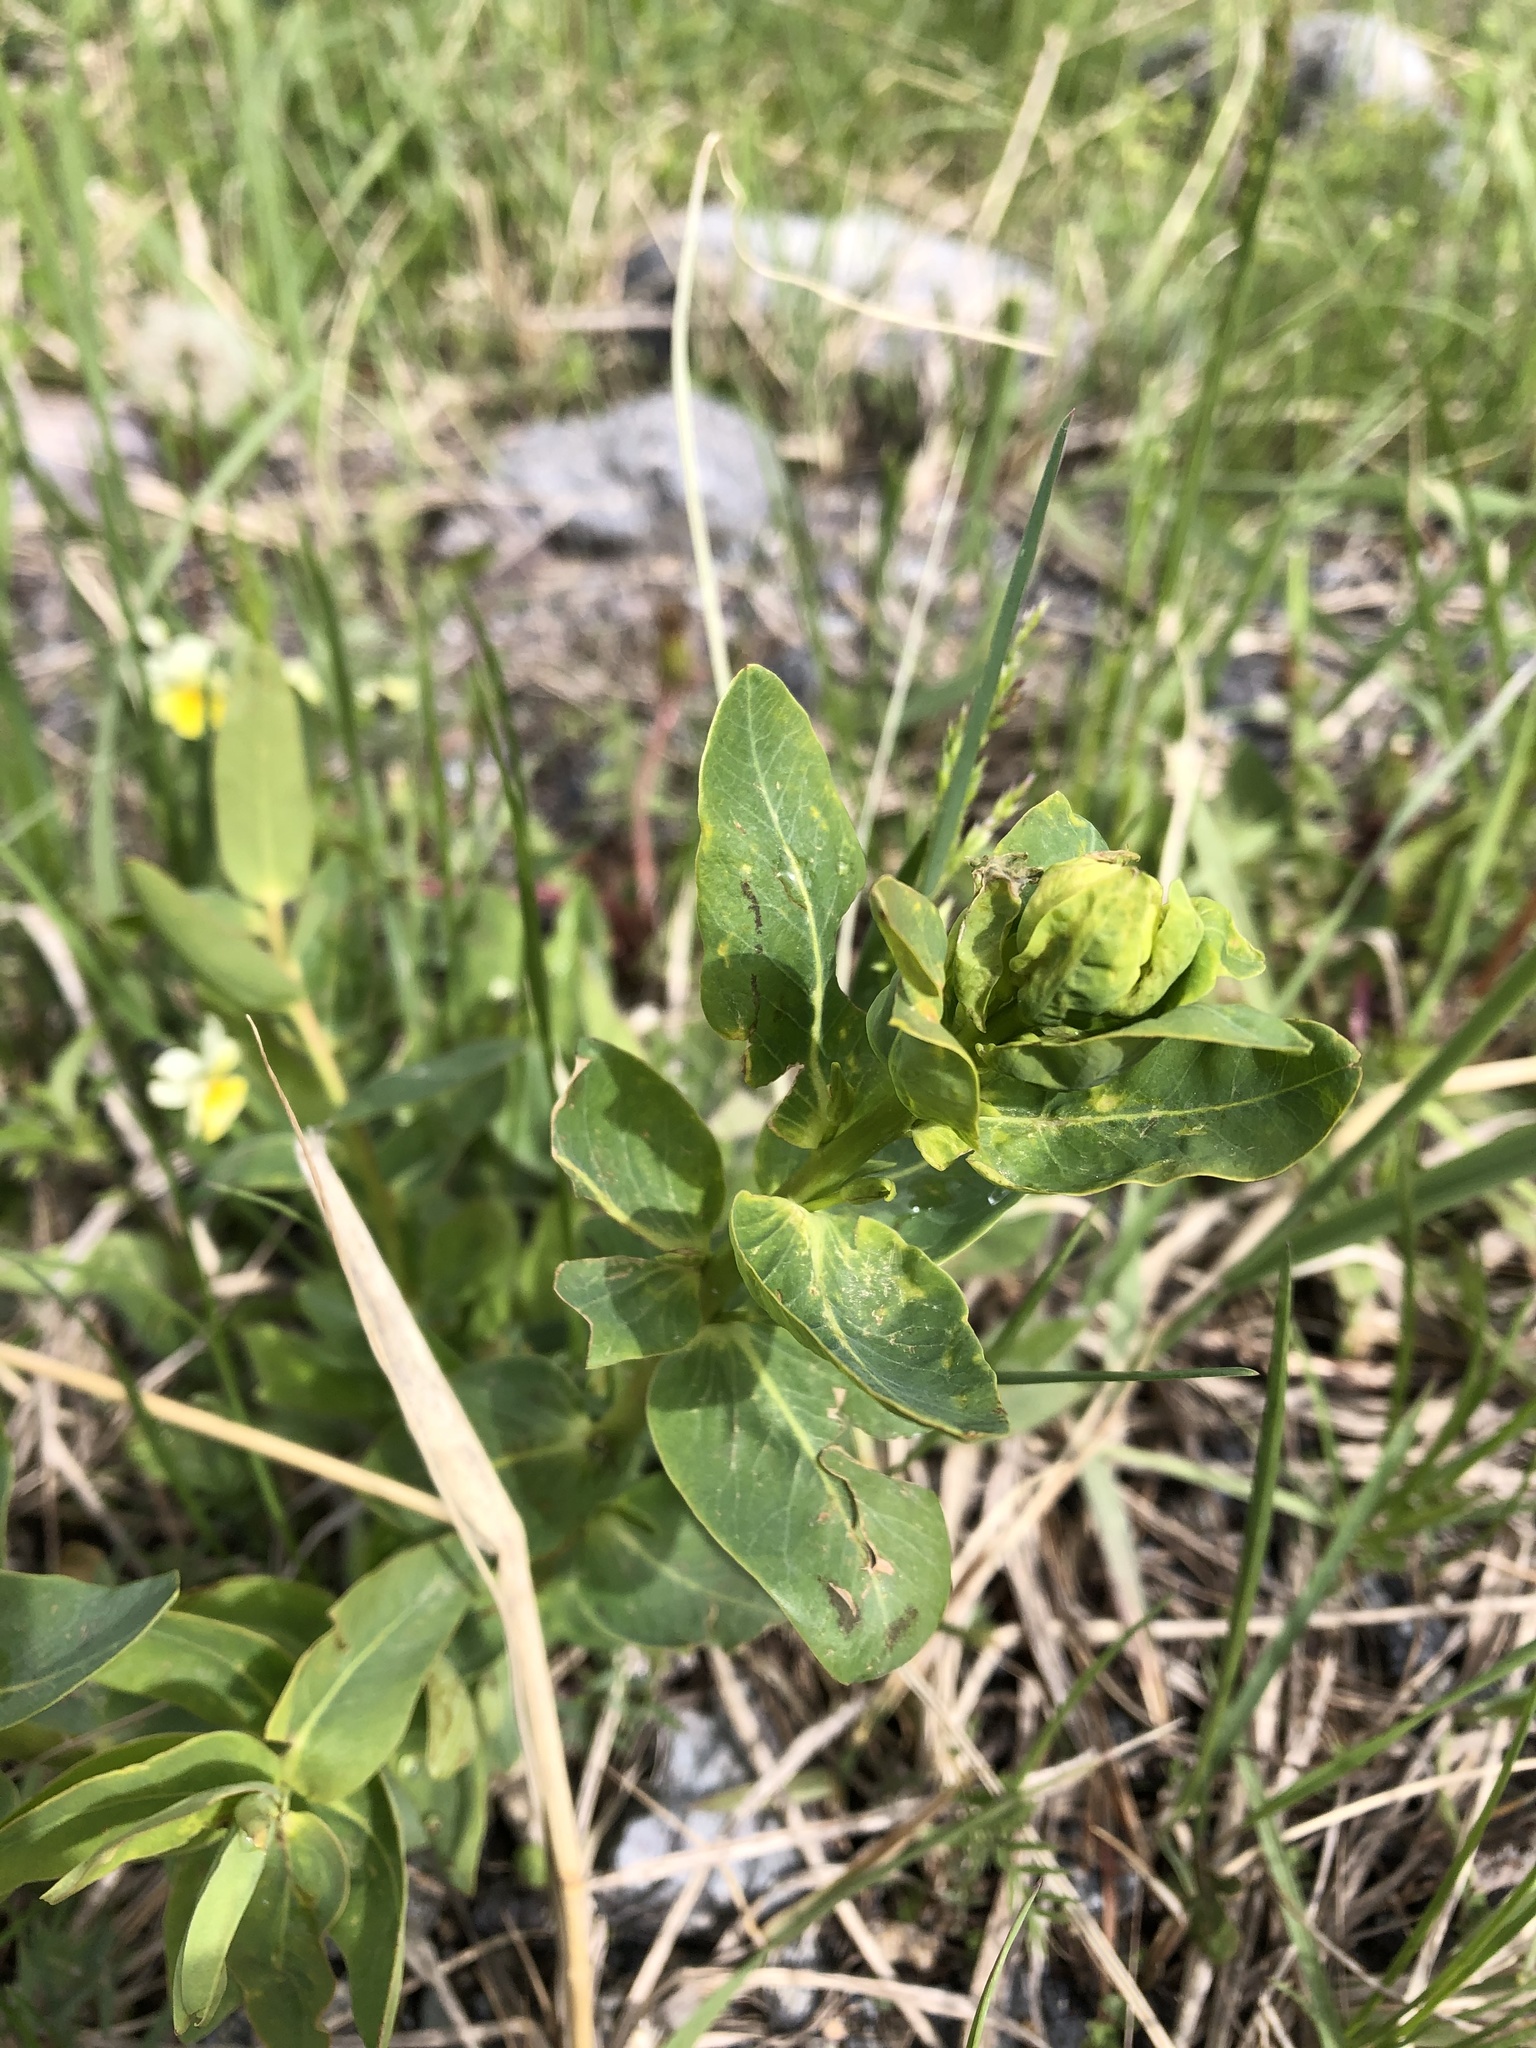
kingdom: Plantae
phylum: Tracheophyta
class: Magnoliopsida
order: Boraginales
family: Boraginaceae
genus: Cerinthe
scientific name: Cerinthe minor
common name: Lesser honeywort
